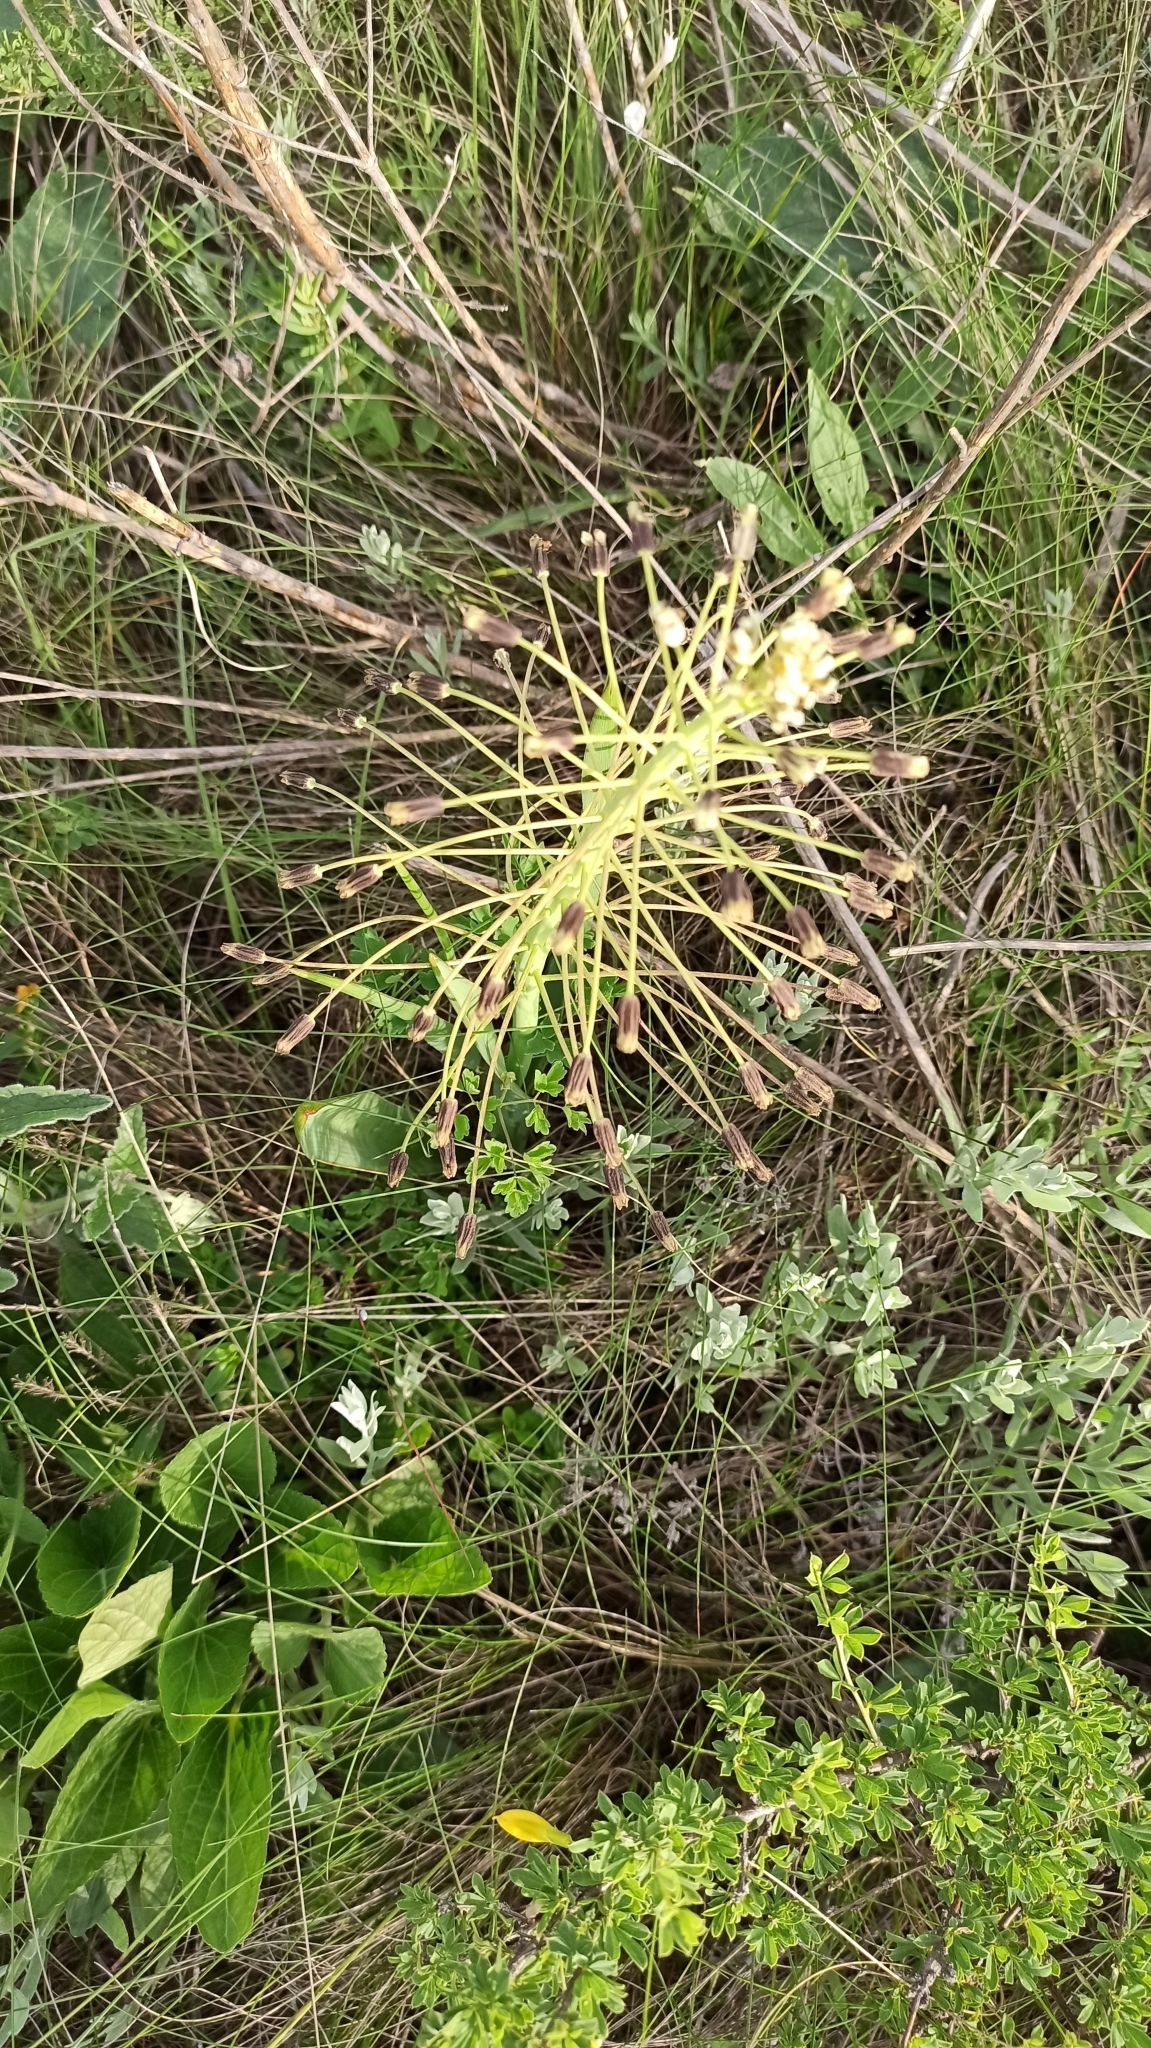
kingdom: Plantae
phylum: Tracheophyta
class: Liliopsida
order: Asparagales
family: Asparagaceae
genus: Bellevalia
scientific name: Bellevalia speciosa
